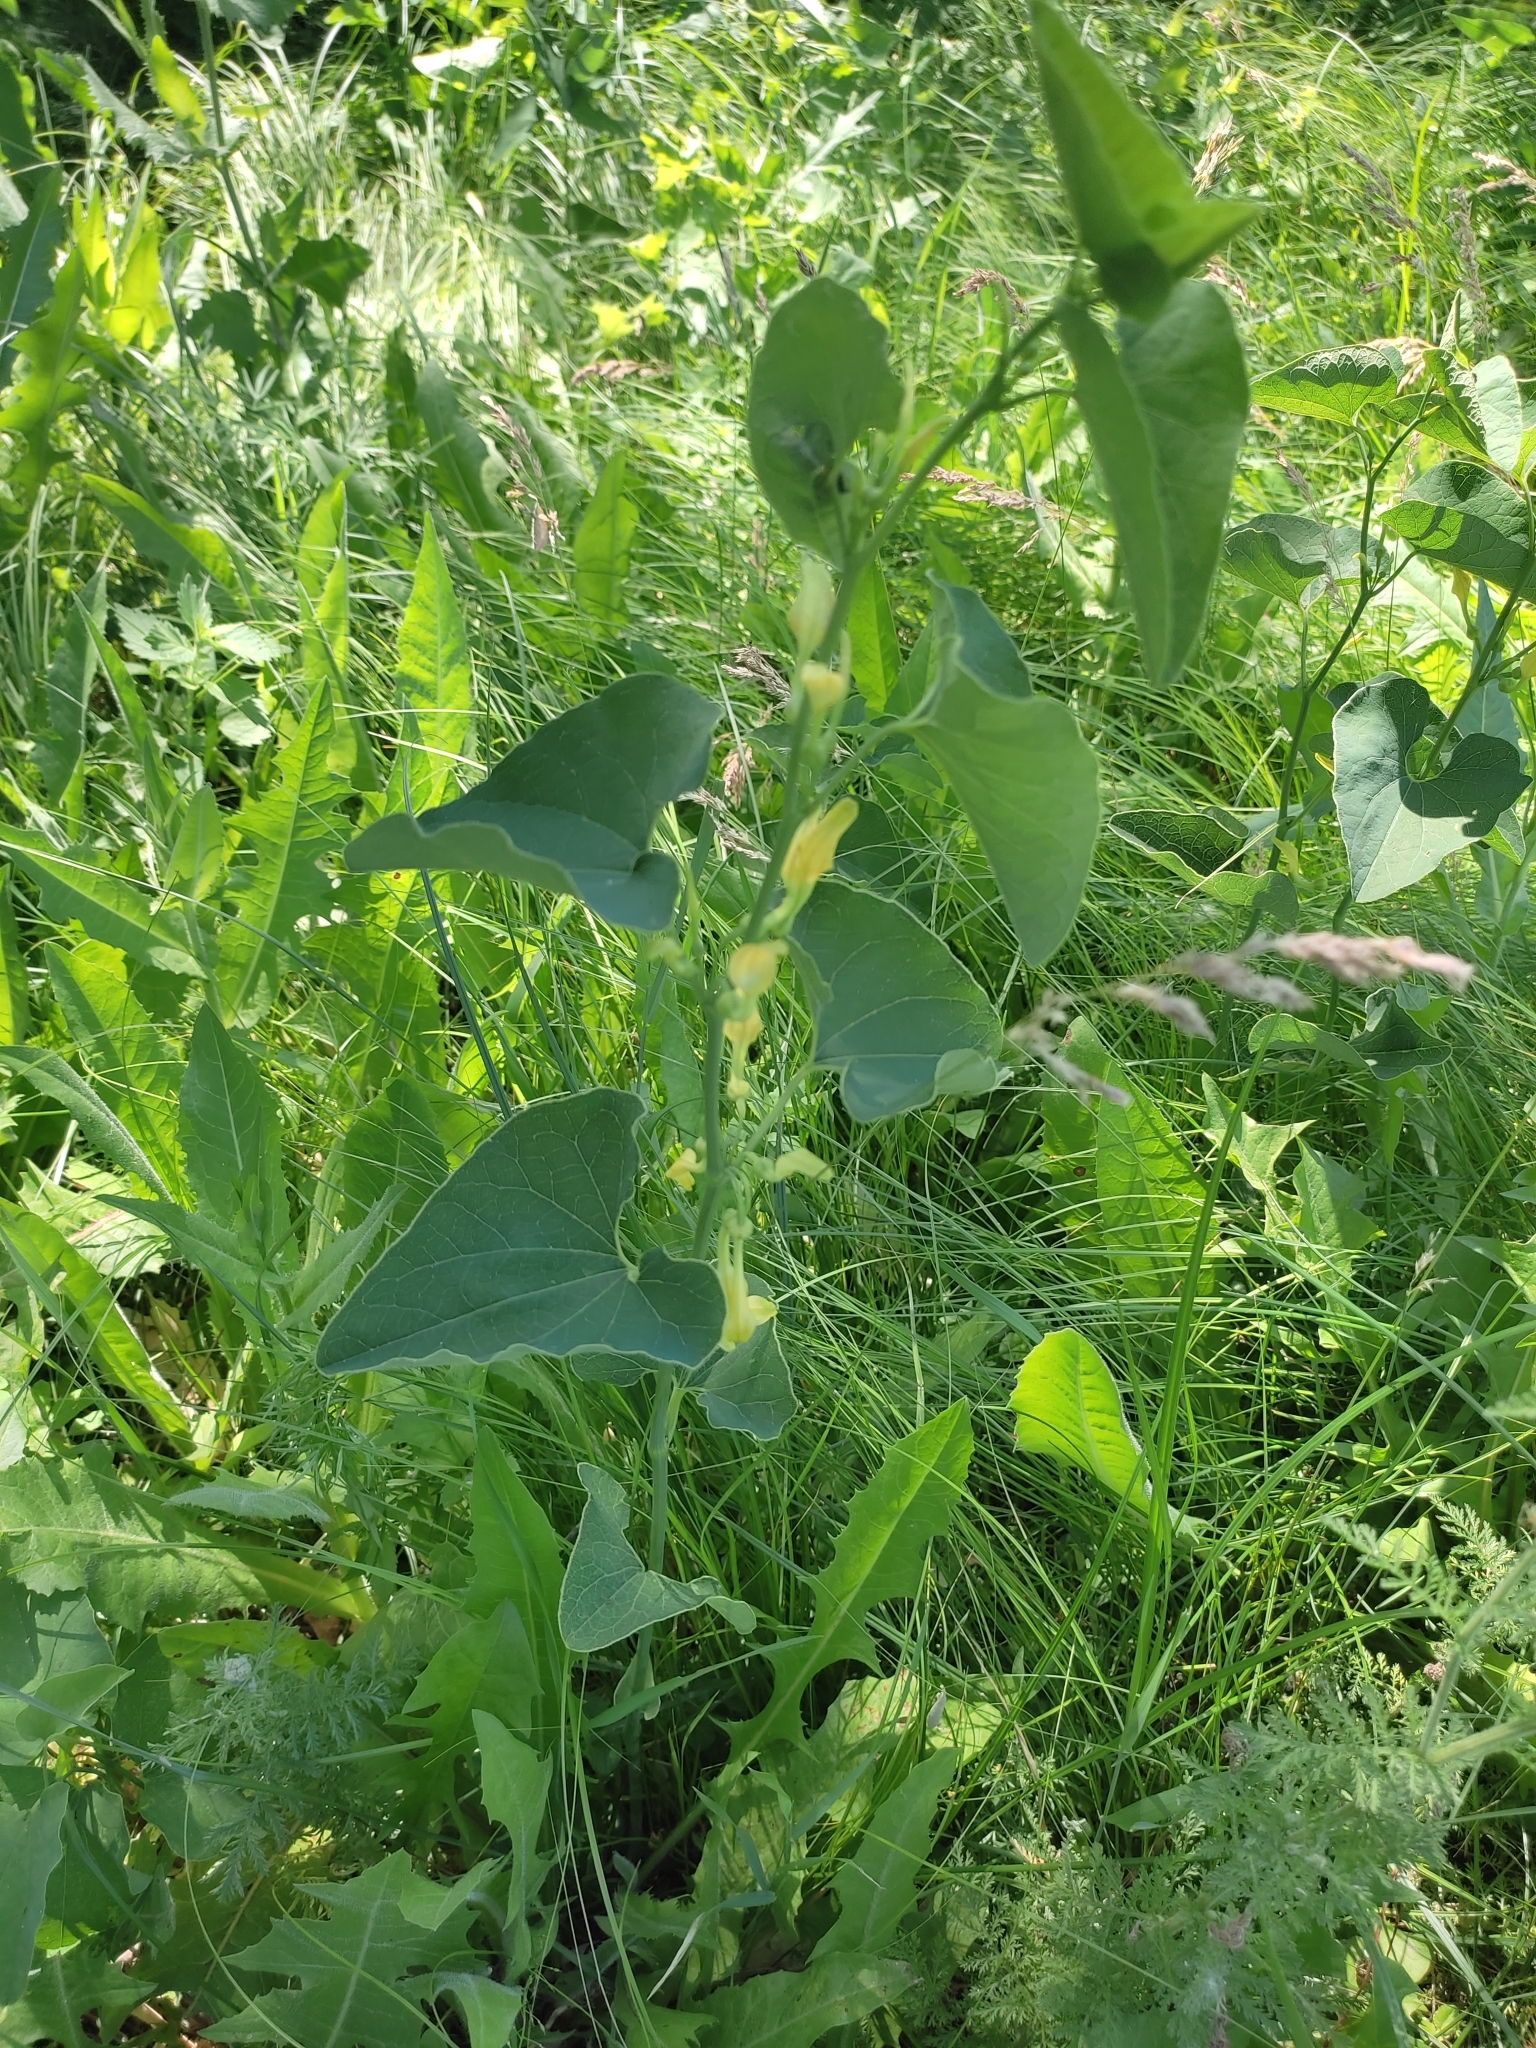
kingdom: Plantae
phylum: Tracheophyta
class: Magnoliopsida
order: Piperales
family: Aristolochiaceae
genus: Aristolochia
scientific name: Aristolochia clematitis
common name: Birthwort
